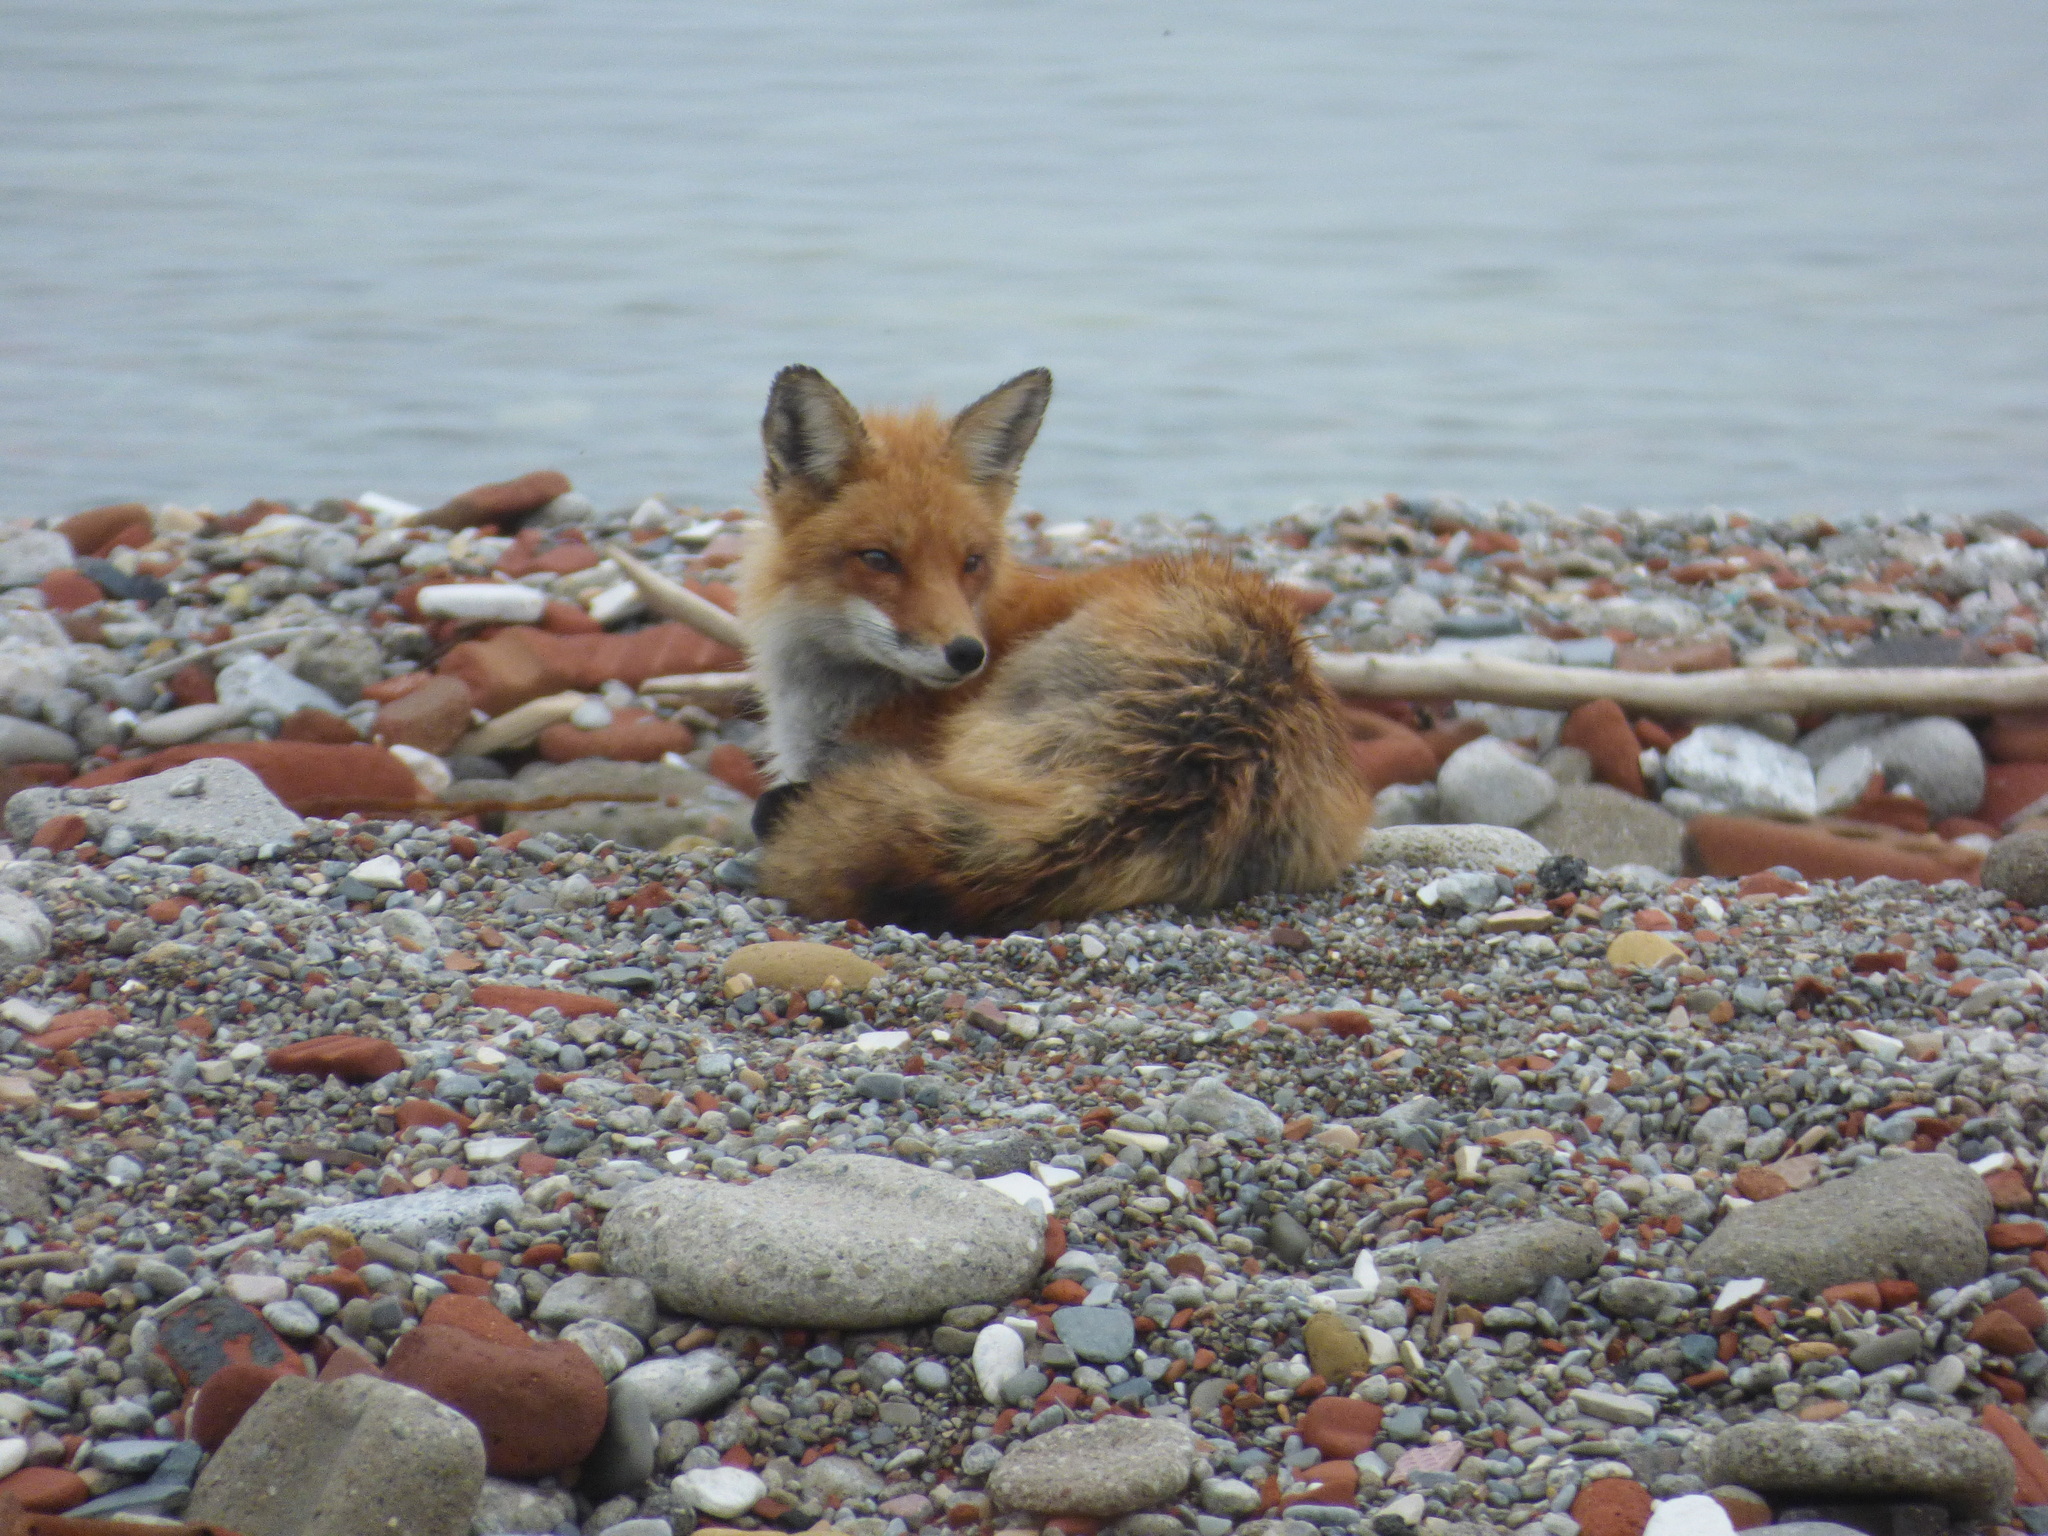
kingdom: Animalia
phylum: Chordata
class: Mammalia
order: Carnivora
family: Canidae
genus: Vulpes
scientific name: Vulpes vulpes
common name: Red fox
